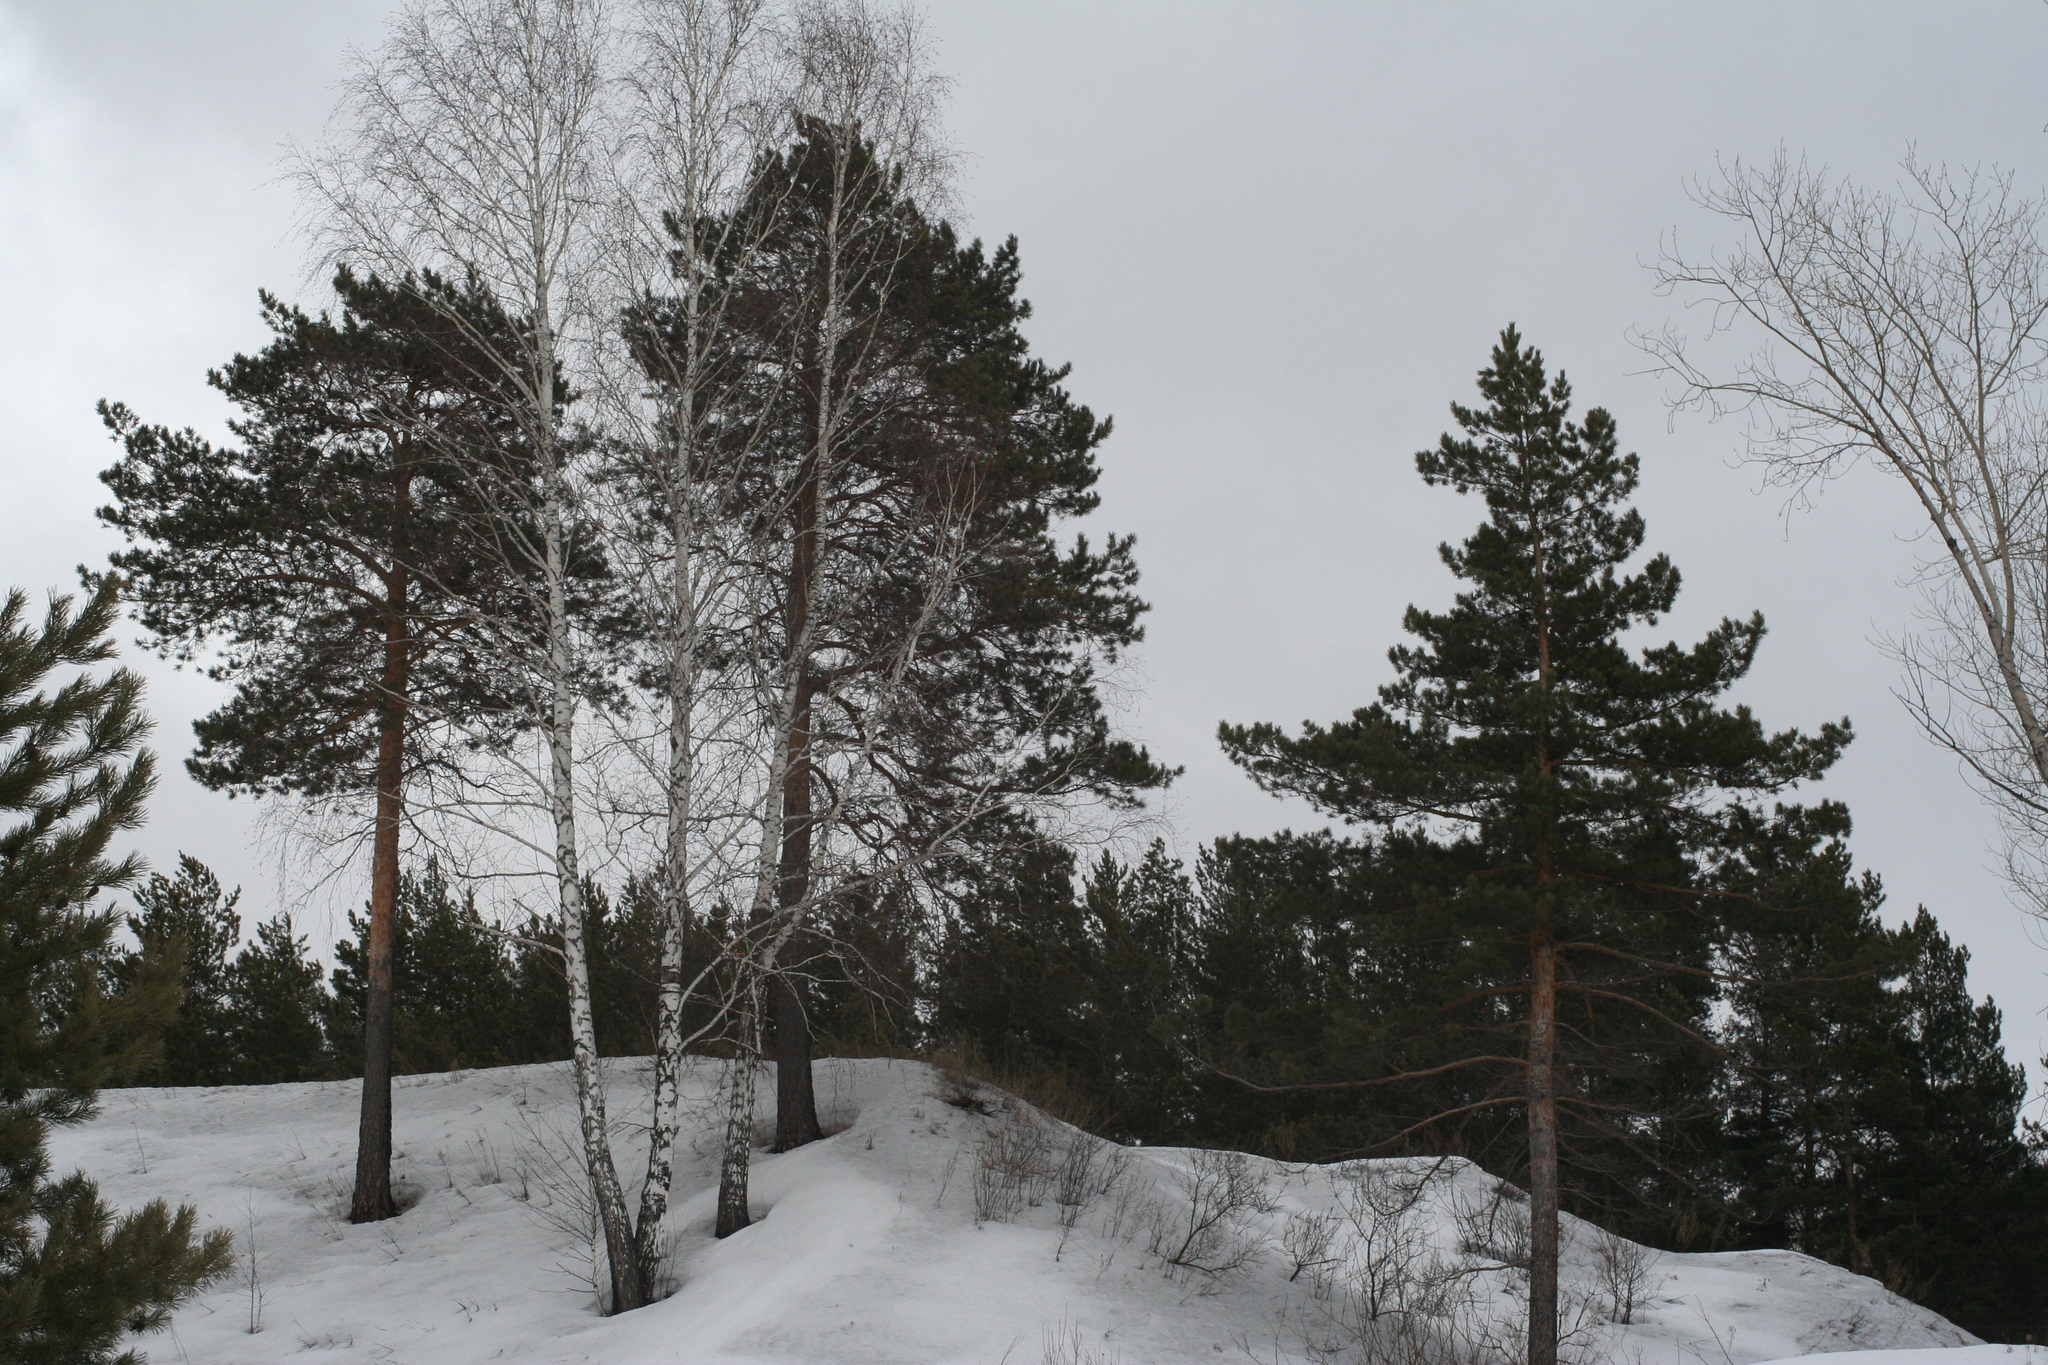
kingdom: Plantae
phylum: Tracheophyta
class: Pinopsida
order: Pinales
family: Pinaceae
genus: Pinus
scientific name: Pinus sylvestris
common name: Scots pine
